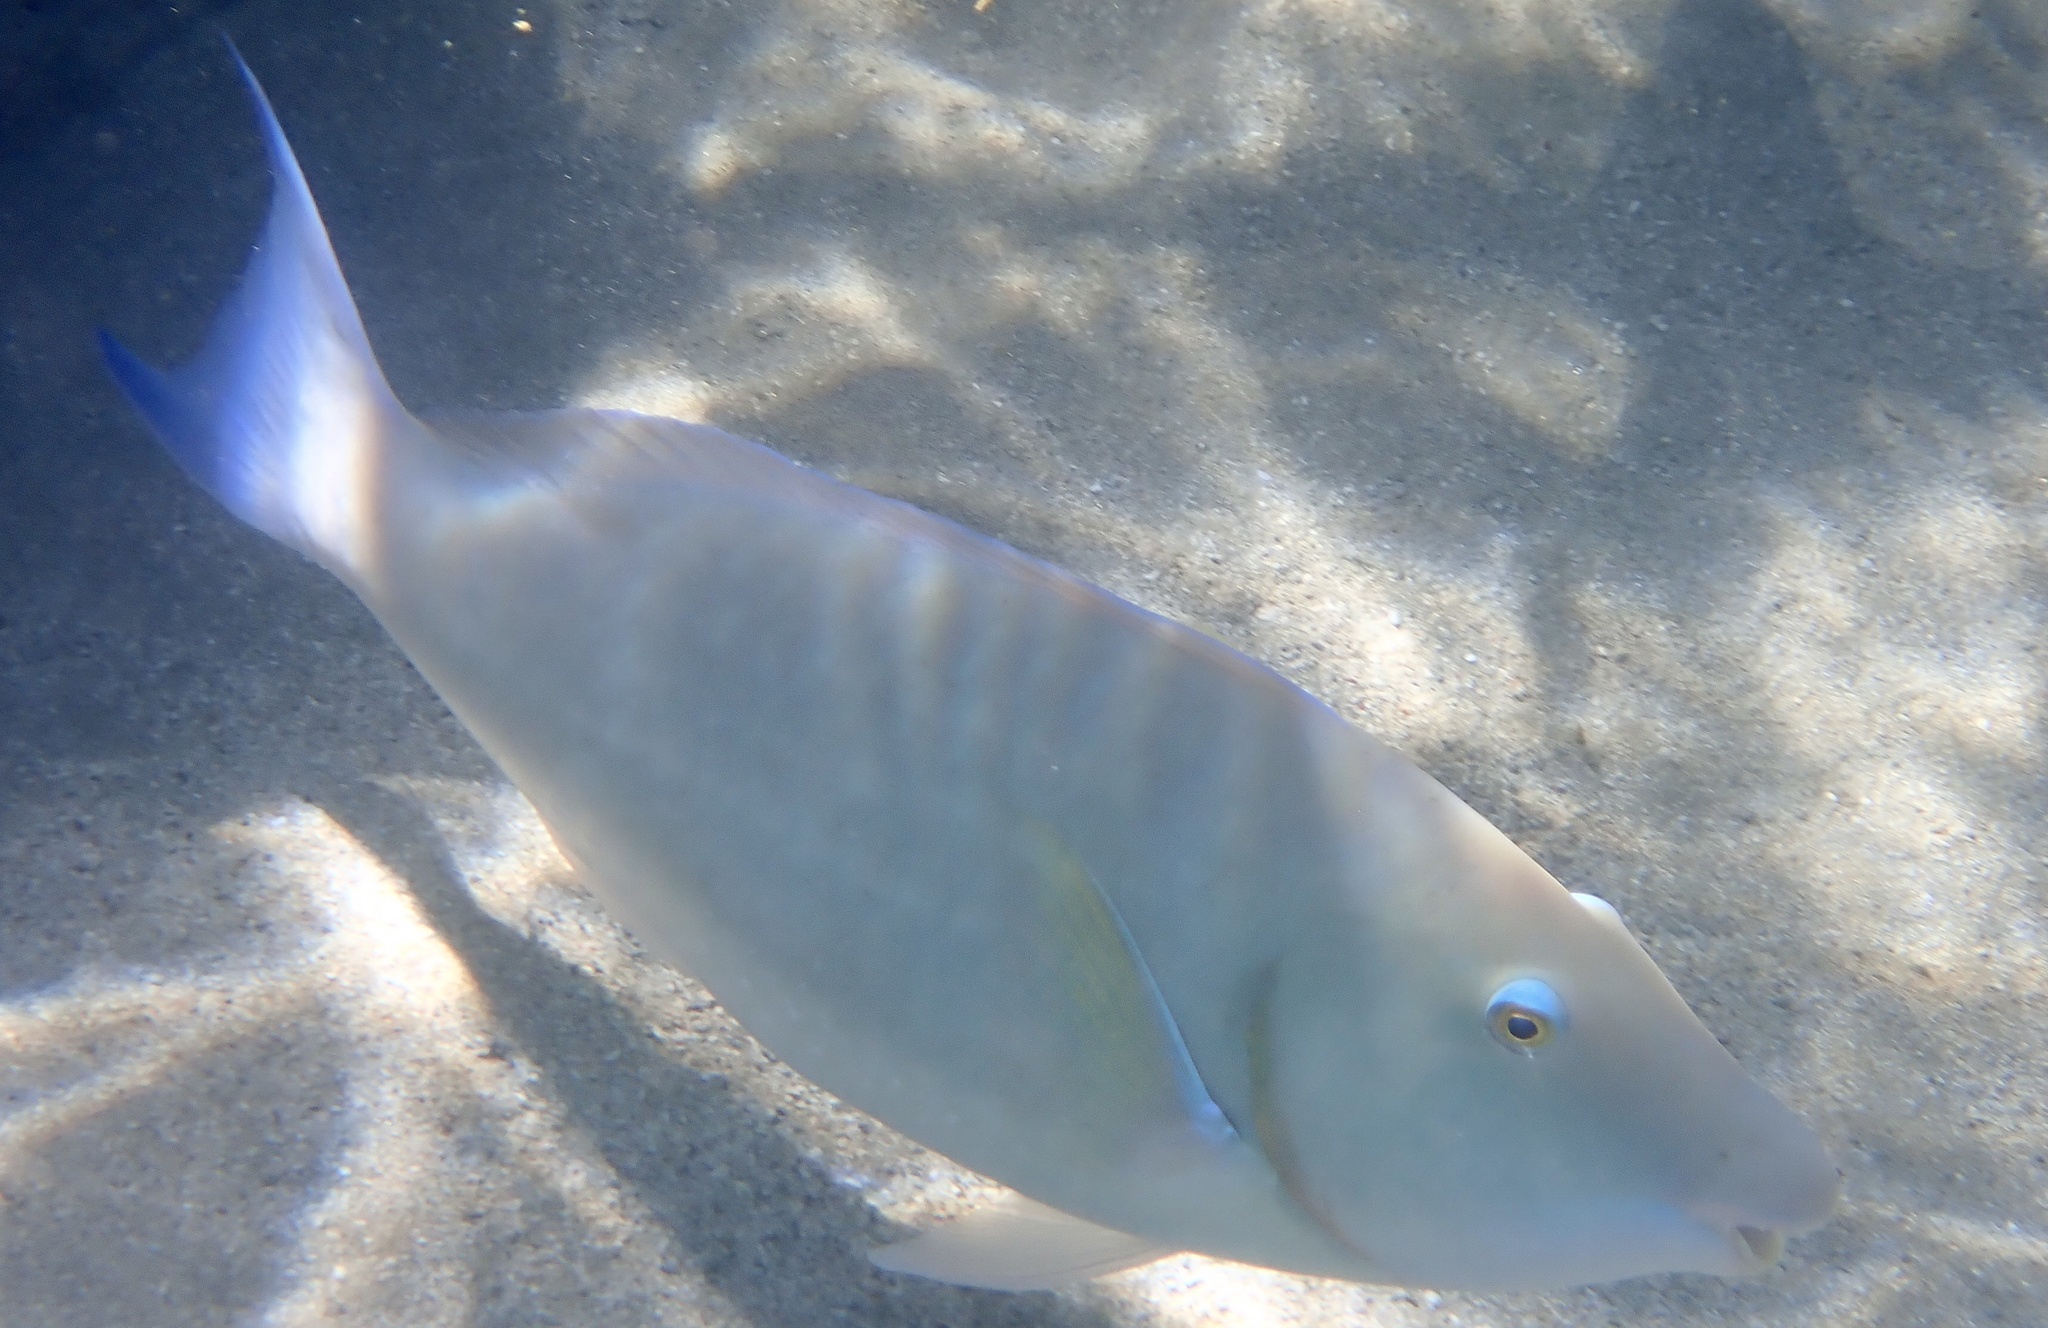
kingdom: Animalia
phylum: Chordata
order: Perciformes
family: Scaridae
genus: Hipposcarus
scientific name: Hipposcarus harid
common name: Candelamoa parrotfish
